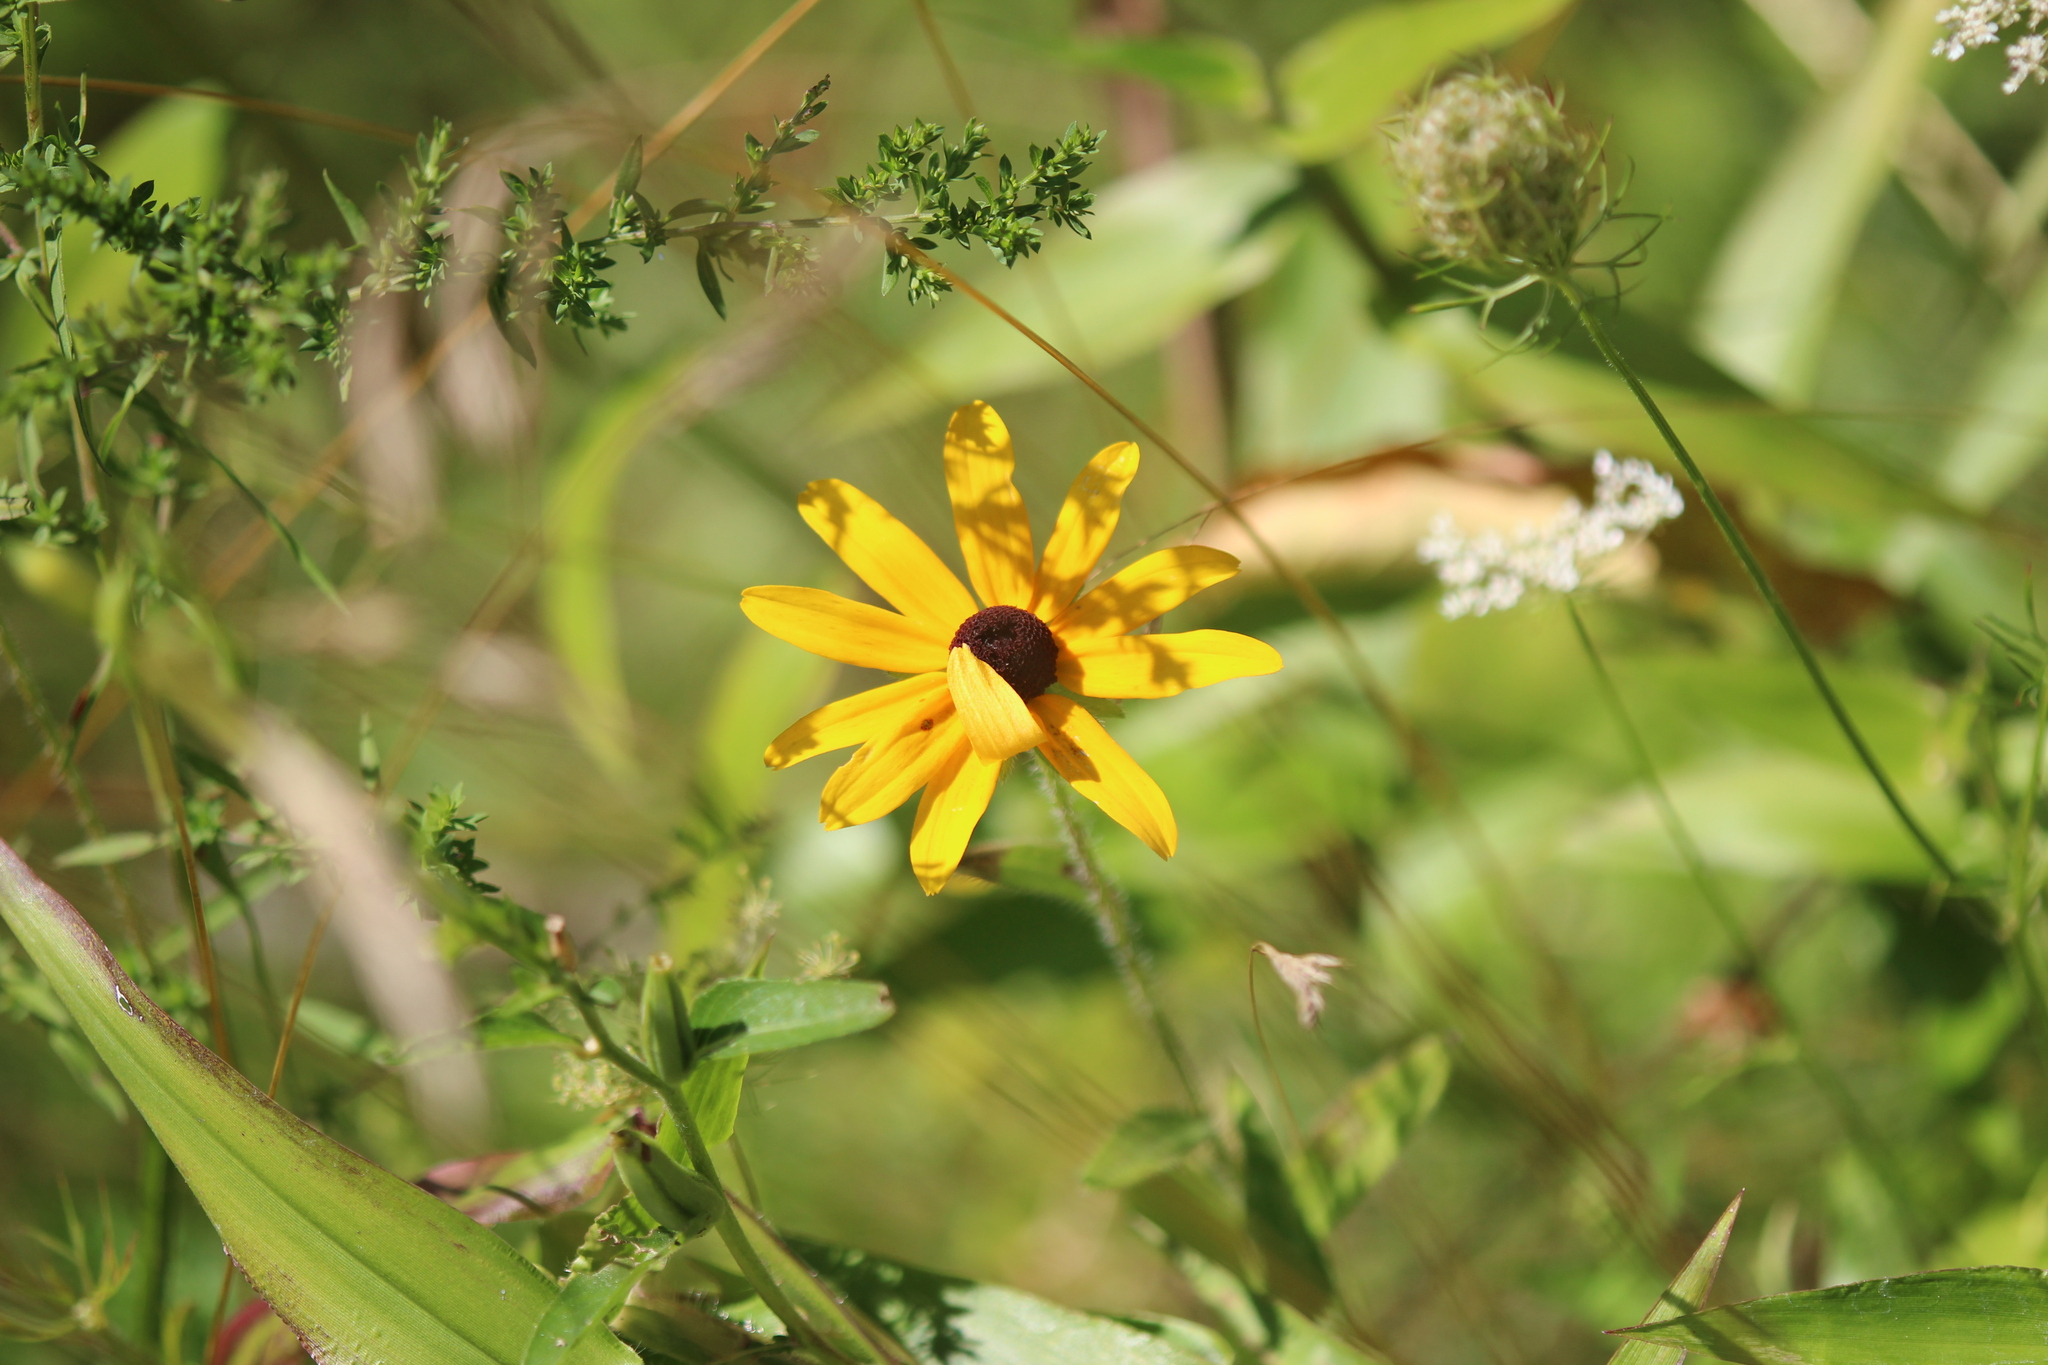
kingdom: Plantae
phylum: Tracheophyta
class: Magnoliopsida
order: Asterales
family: Asteraceae
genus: Rudbeckia
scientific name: Rudbeckia hirta
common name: Black-eyed-susan
